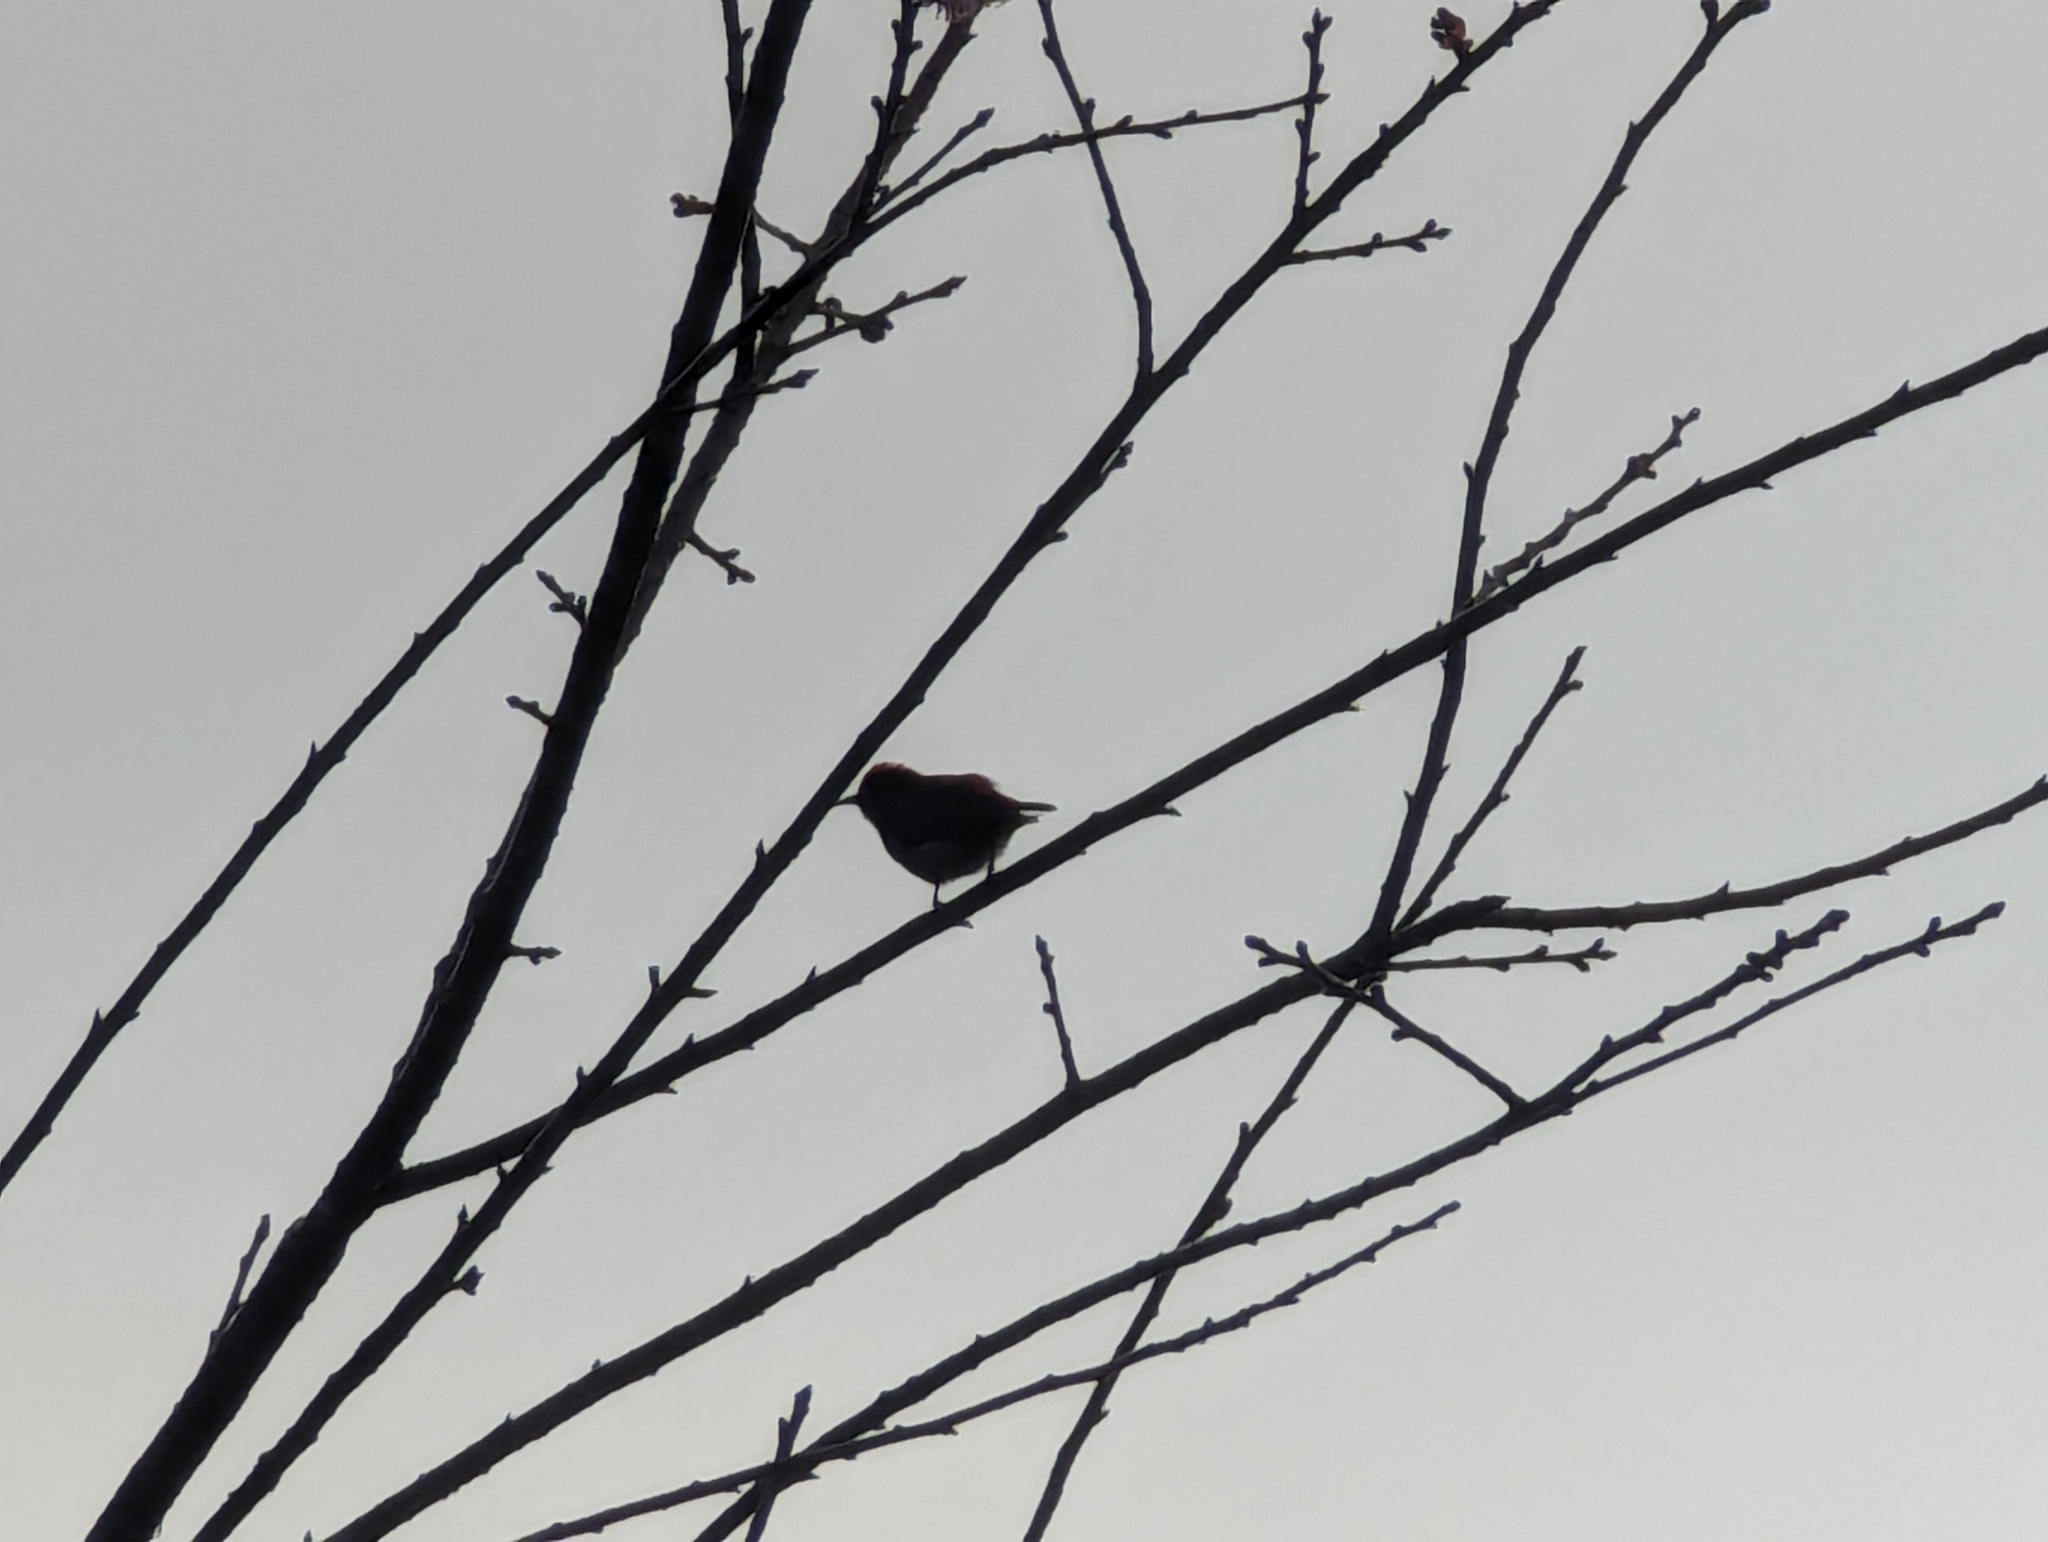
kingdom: Animalia
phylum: Chordata
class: Aves
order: Passeriformes
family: Dicaeidae
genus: Dicaeum
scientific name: Dicaeum cruentatum
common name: Scarlet-backed flowerpecker
